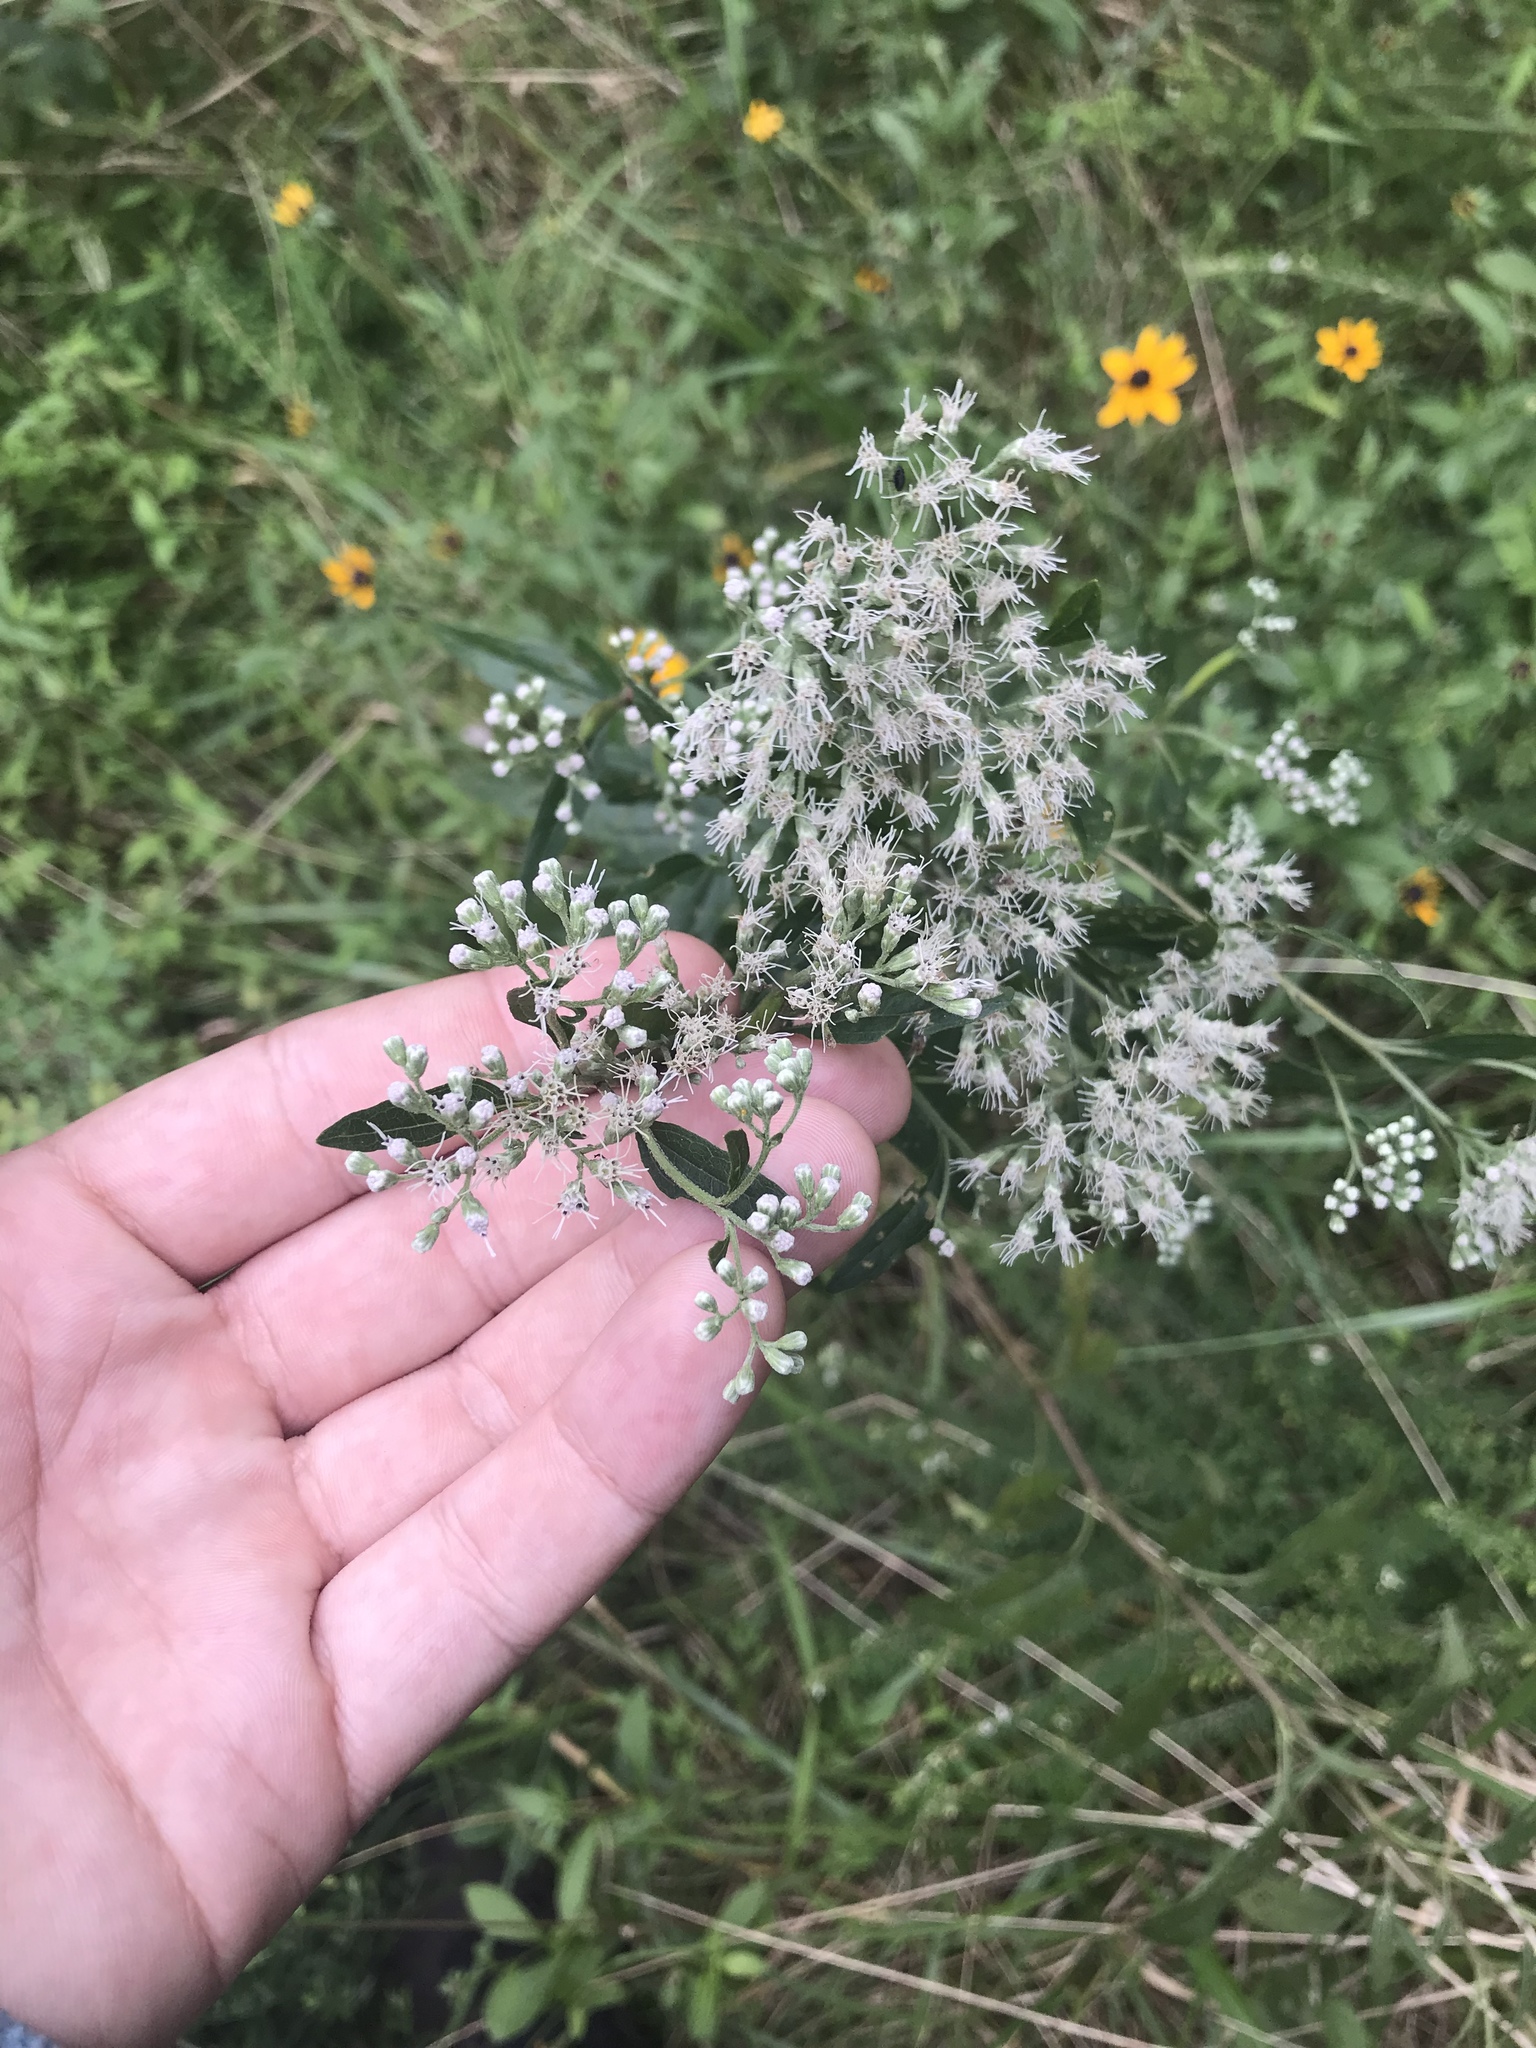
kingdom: Plantae
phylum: Tracheophyta
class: Magnoliopsida
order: Asterales
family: Asteraceae
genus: Eupatorium
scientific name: Eupatorium serotinum
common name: Late boneset
